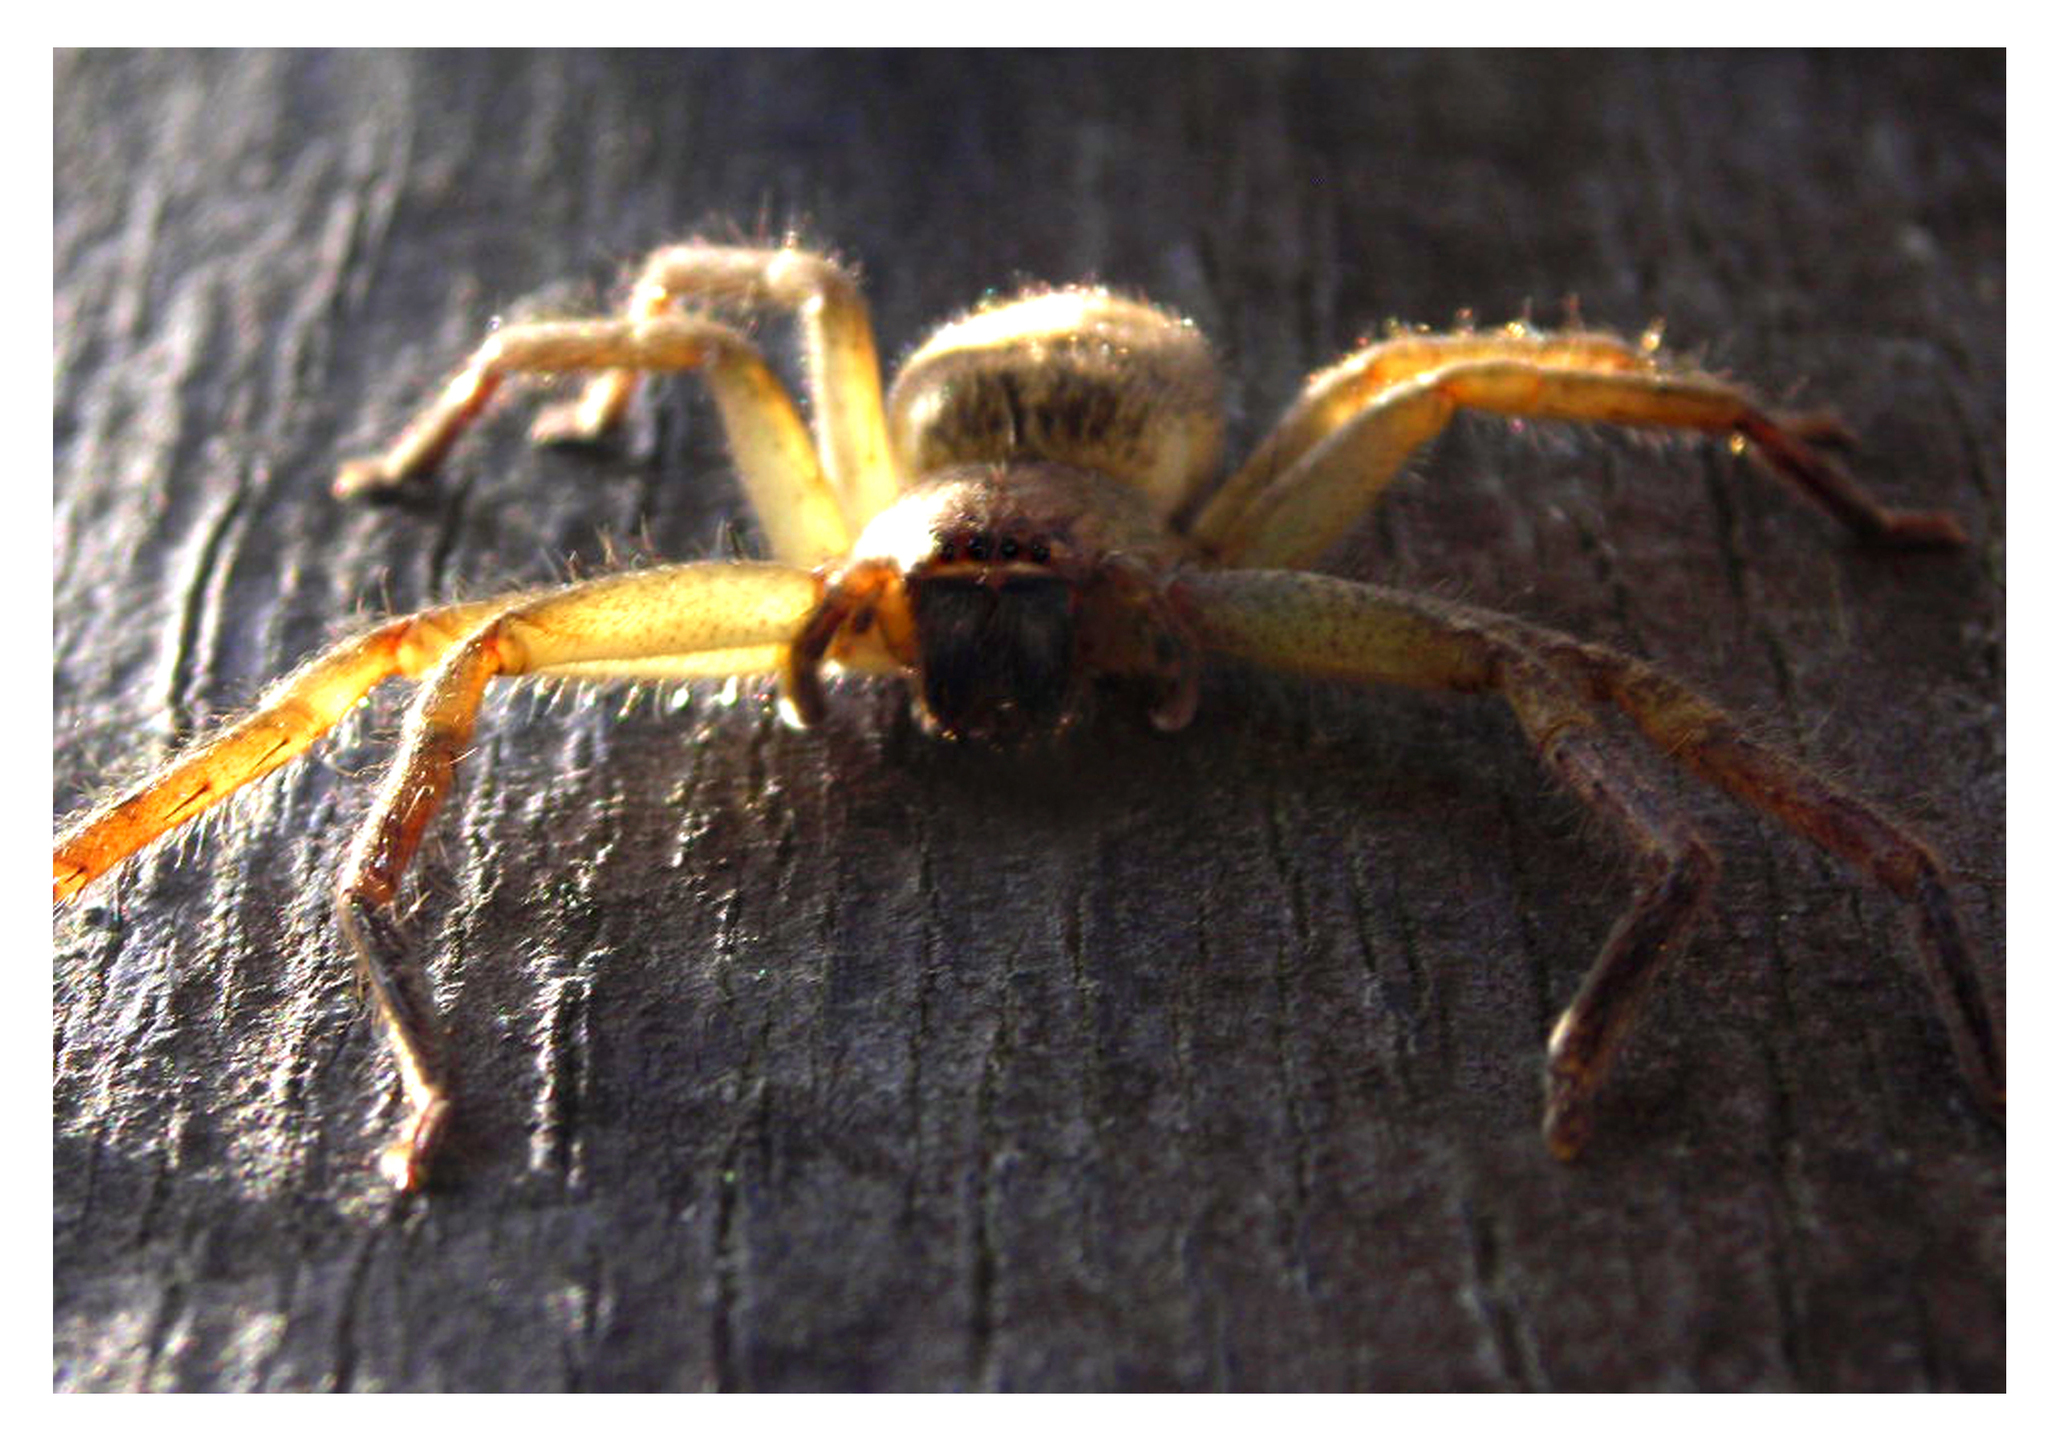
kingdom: Animalia
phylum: Arthropoda
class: Arachnida
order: Araneae
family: Sparassidae
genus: Polybetes
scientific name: Polybetes rapidus
